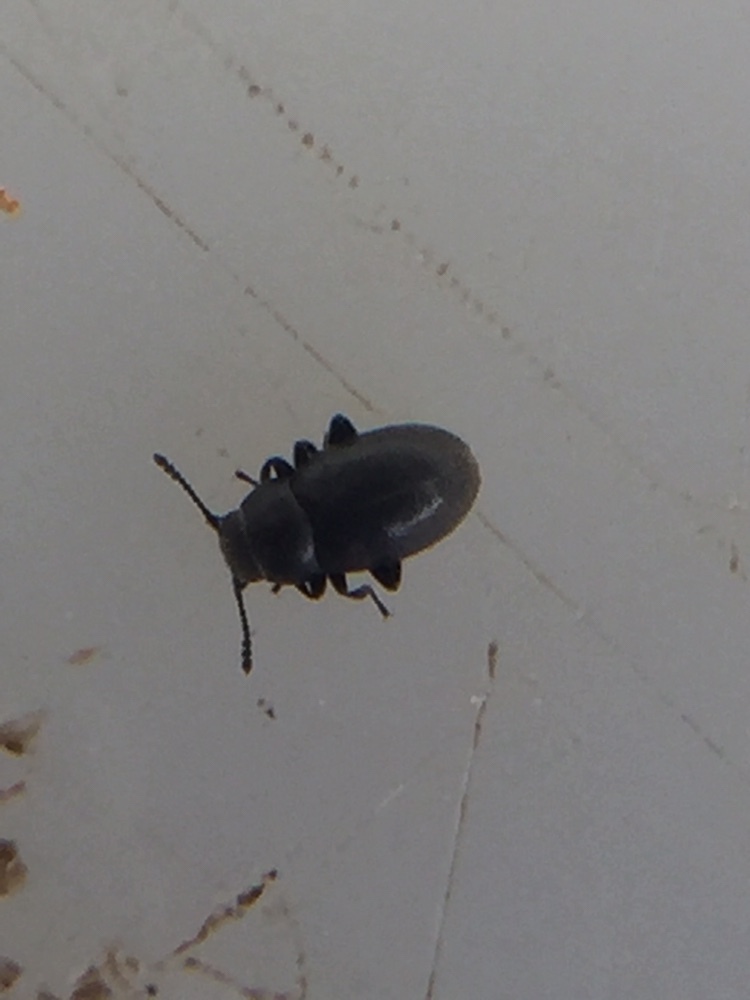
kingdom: Animalia
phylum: Arthropoda
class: Insecta
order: Coleoptera
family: Limnichidae
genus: Hyphalus
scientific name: Hyphalus ultimus
